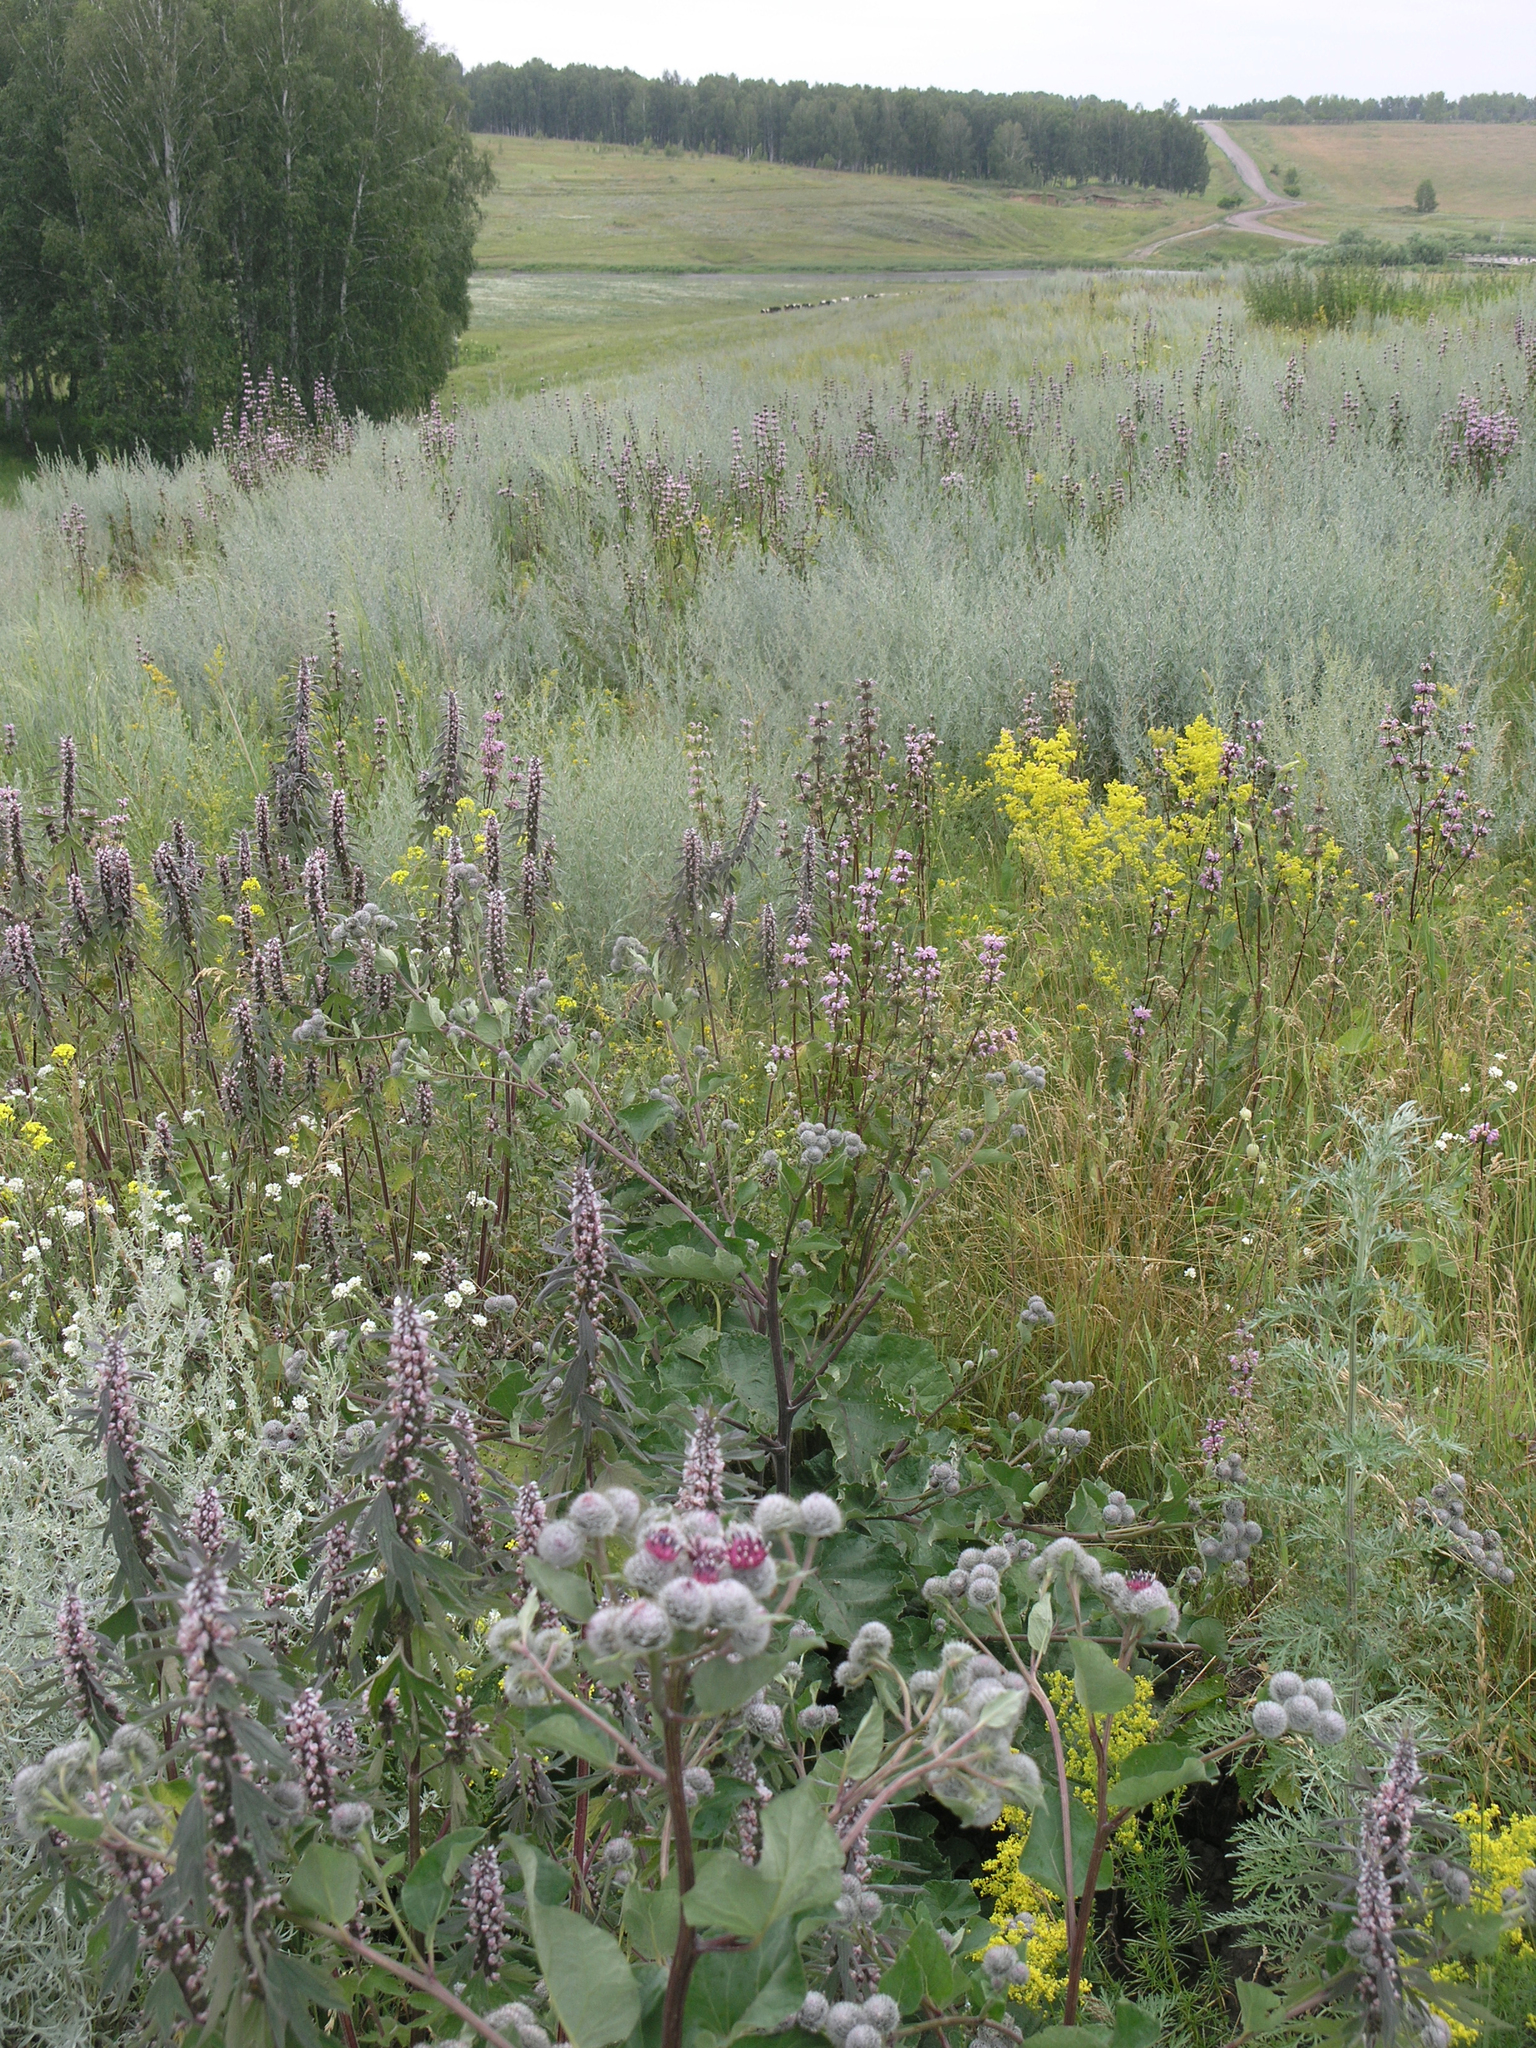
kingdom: Plantae
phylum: Tracheophyta
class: Magnoliopsida
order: Asterales
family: Asteraceae
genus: Arctium
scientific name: Arctium tomentosum
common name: Woolly burdock
